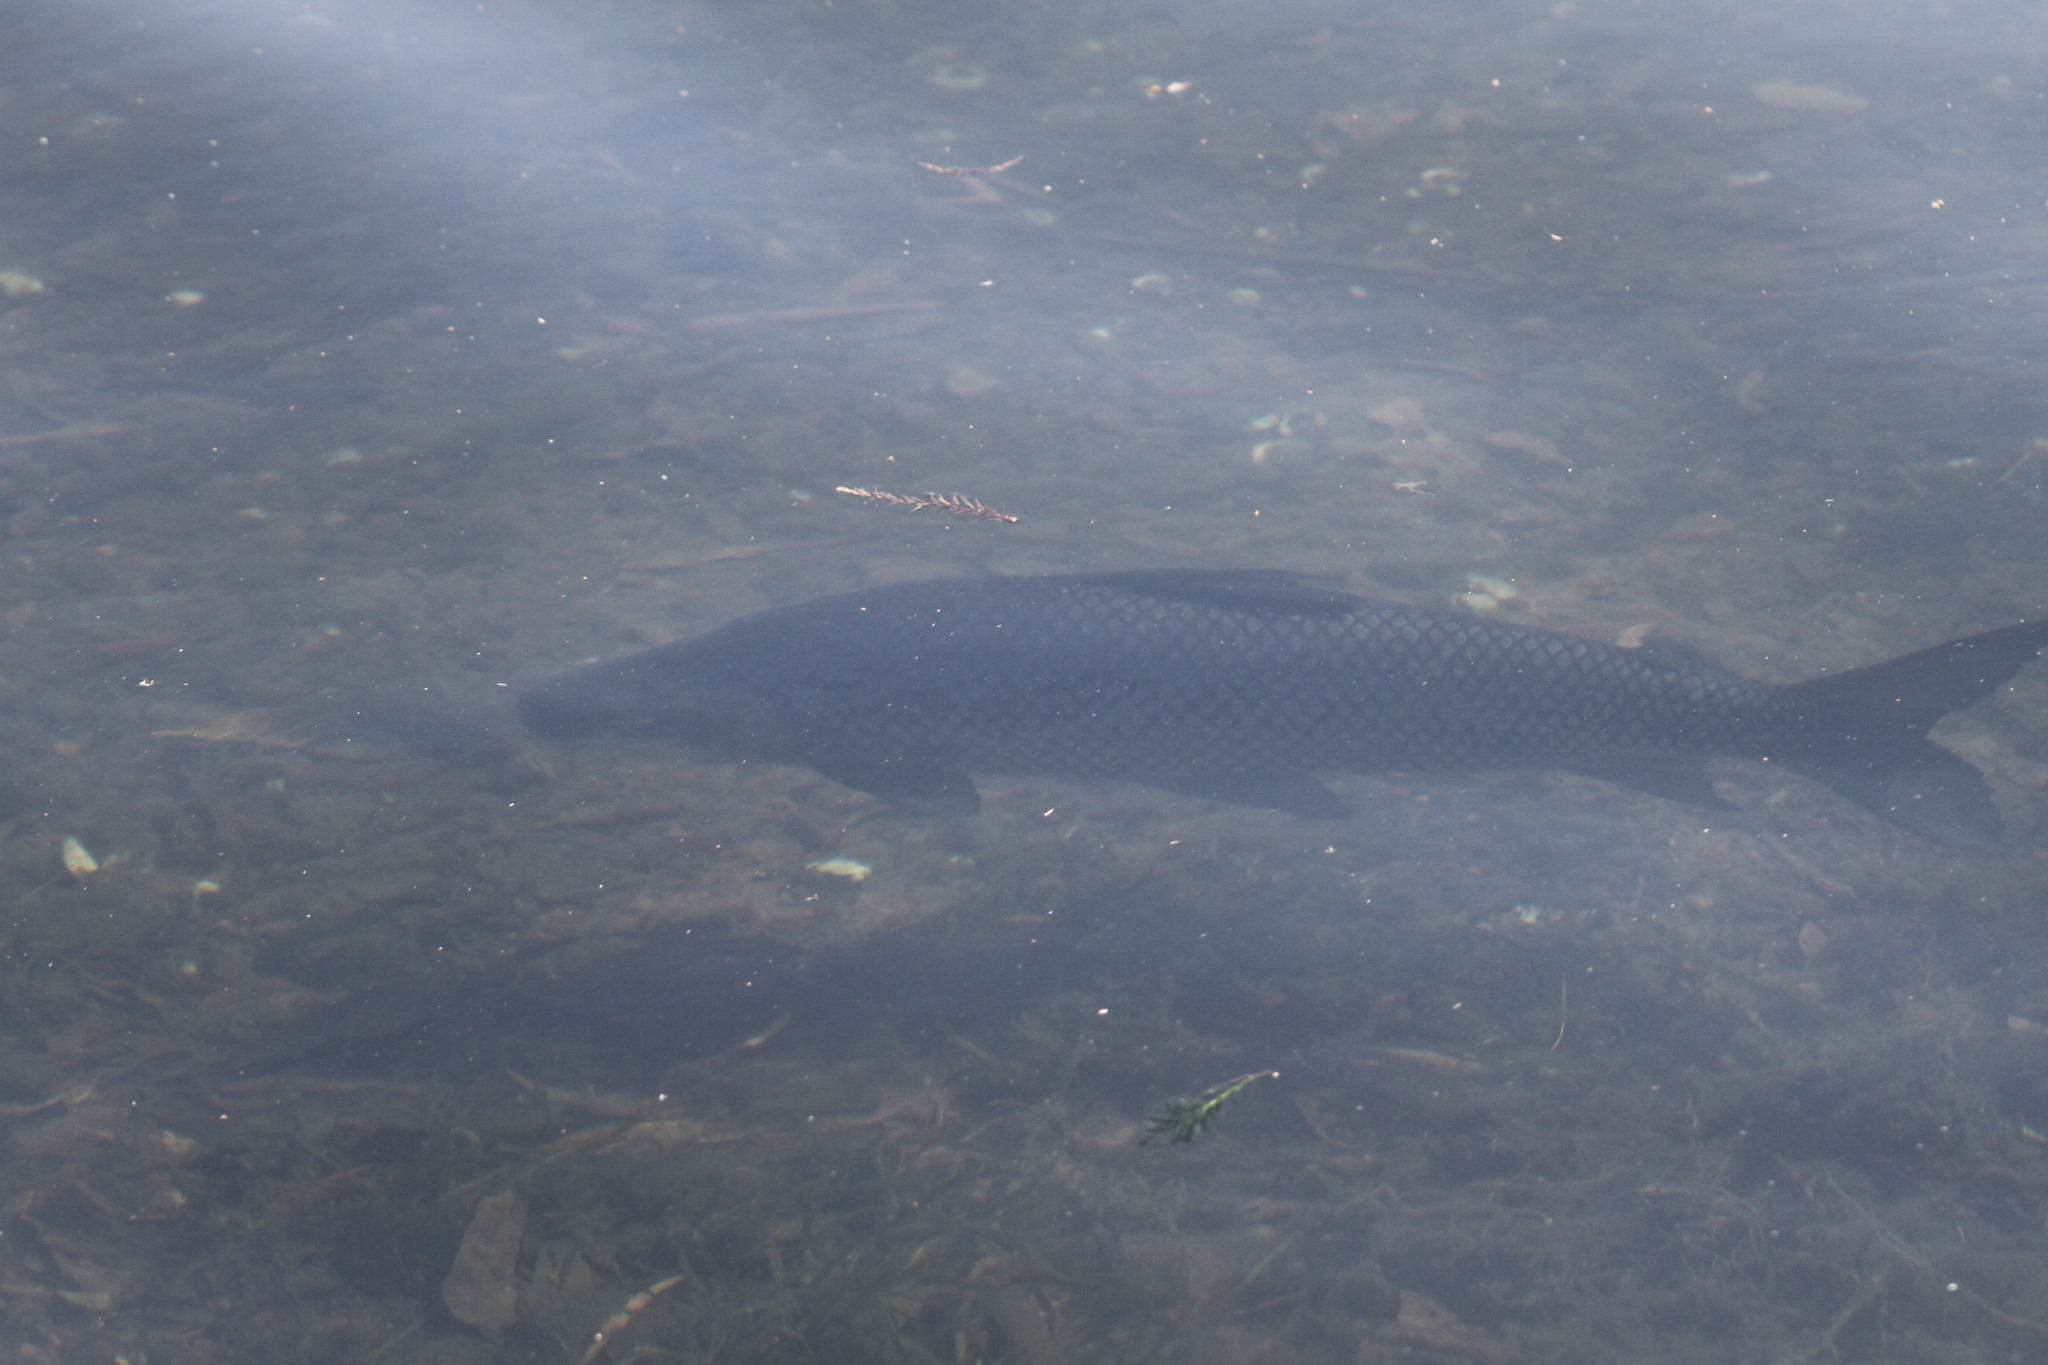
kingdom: Animalia
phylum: Chordata
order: Characiformes
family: Prochilodontidae
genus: Prochilodus
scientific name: Prochilodus lineatus
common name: Curimbata
